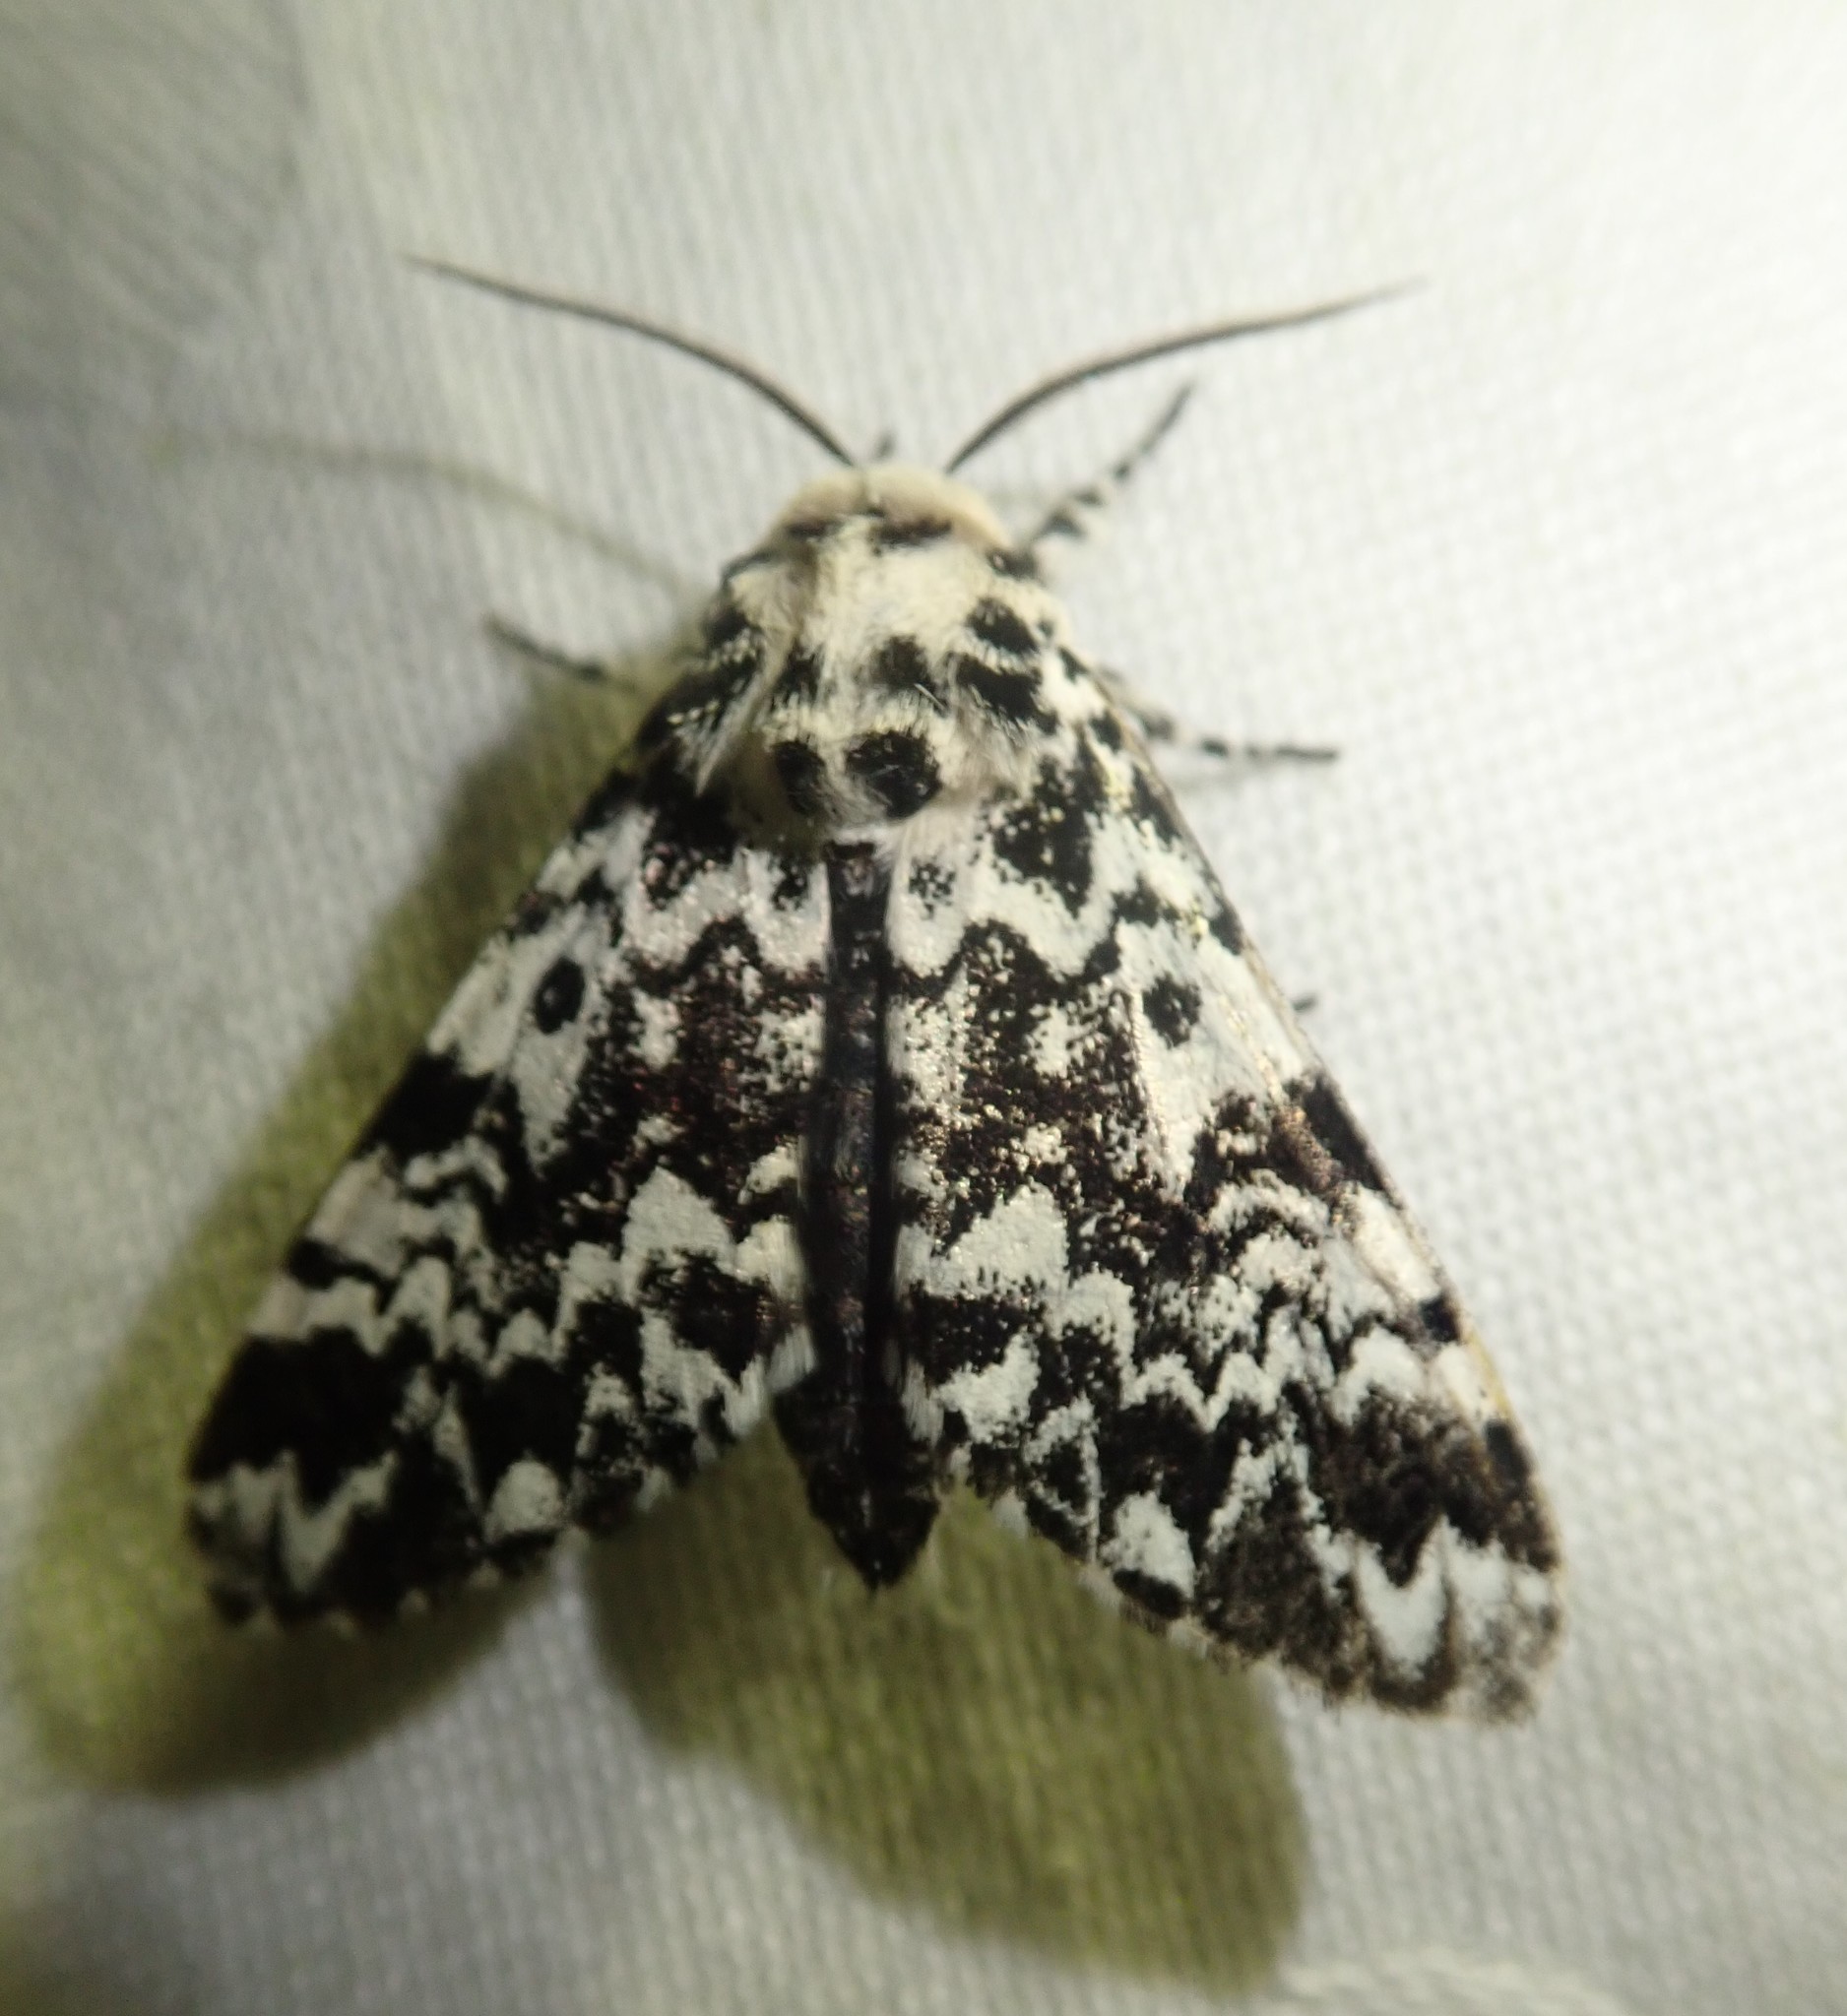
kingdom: Animalia
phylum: Arthropoda
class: Insecta
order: Lepidoptera
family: Noctuidae
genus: Panthea
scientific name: Panthea coenobita
